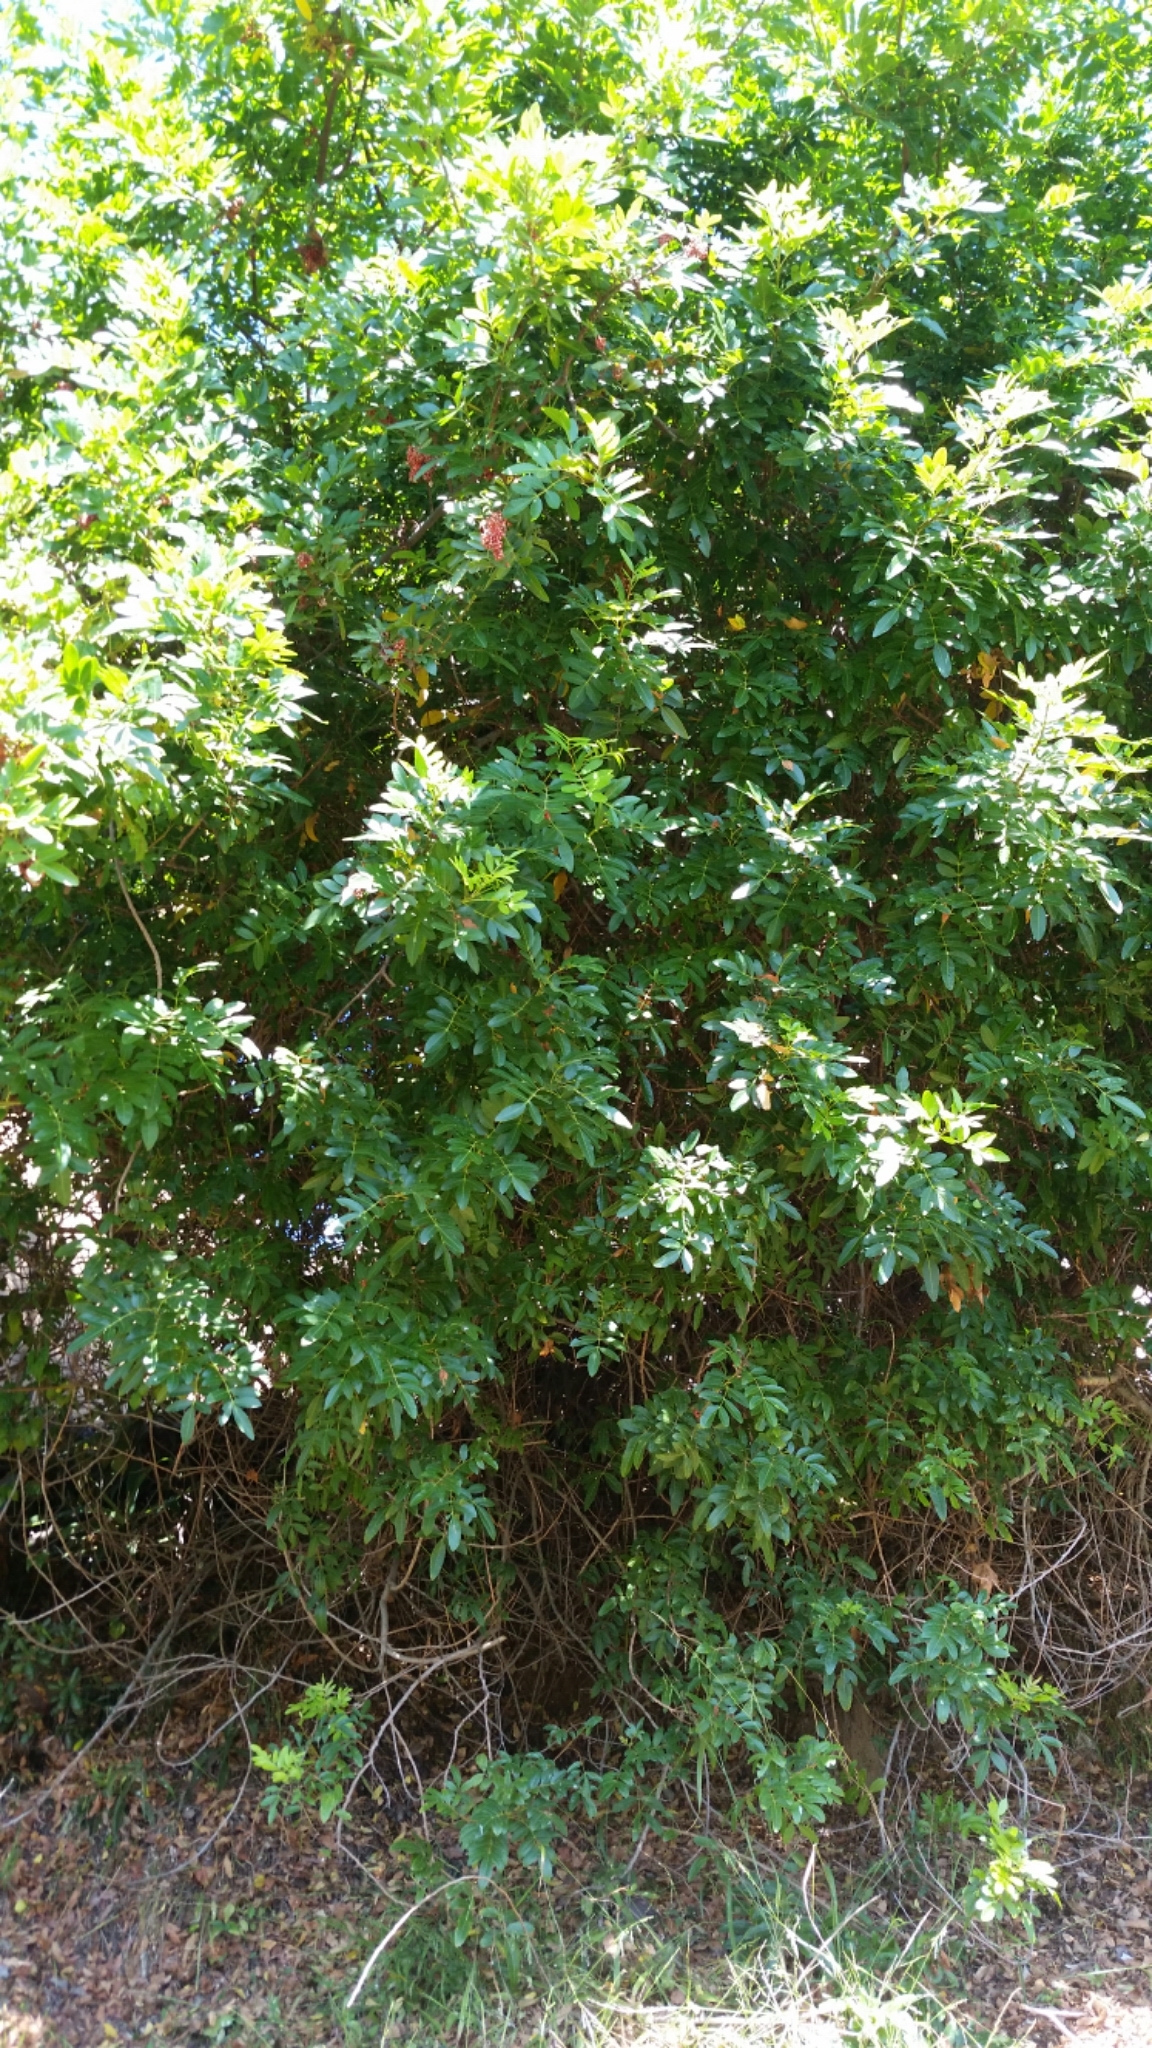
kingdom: Plantae
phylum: Tracheophyta
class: Magnoliopsida
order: Sapindales
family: Anacardiaceae
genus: Schinus
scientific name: Schinus terebinthifolia
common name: Brazilian peppertree
